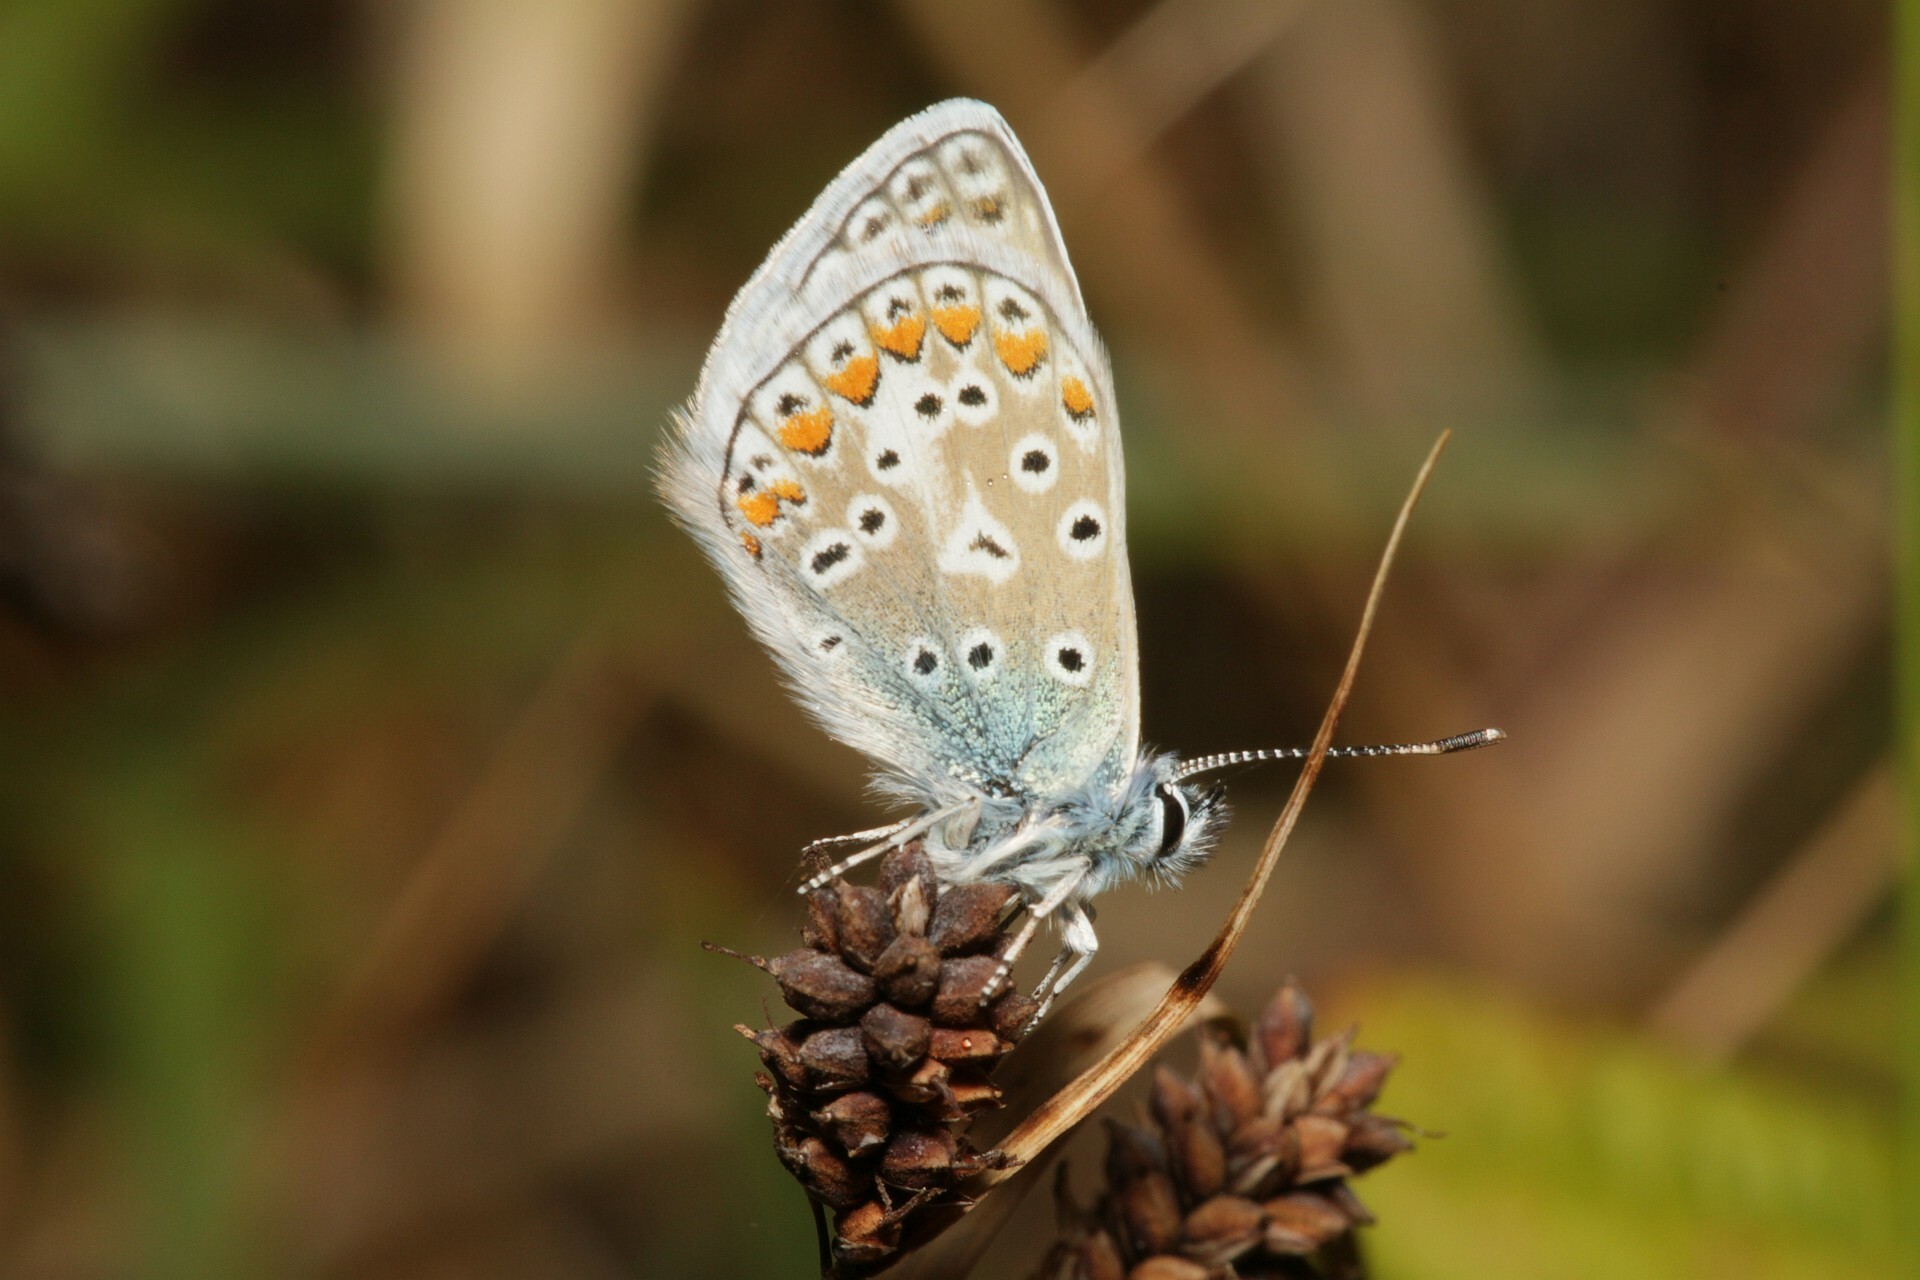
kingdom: Animalia
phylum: Arthropoda
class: Insecta
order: Lepidoptera
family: Lycaenidae
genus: Polyommatus
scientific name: Polyommatus icarus
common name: Common blue
